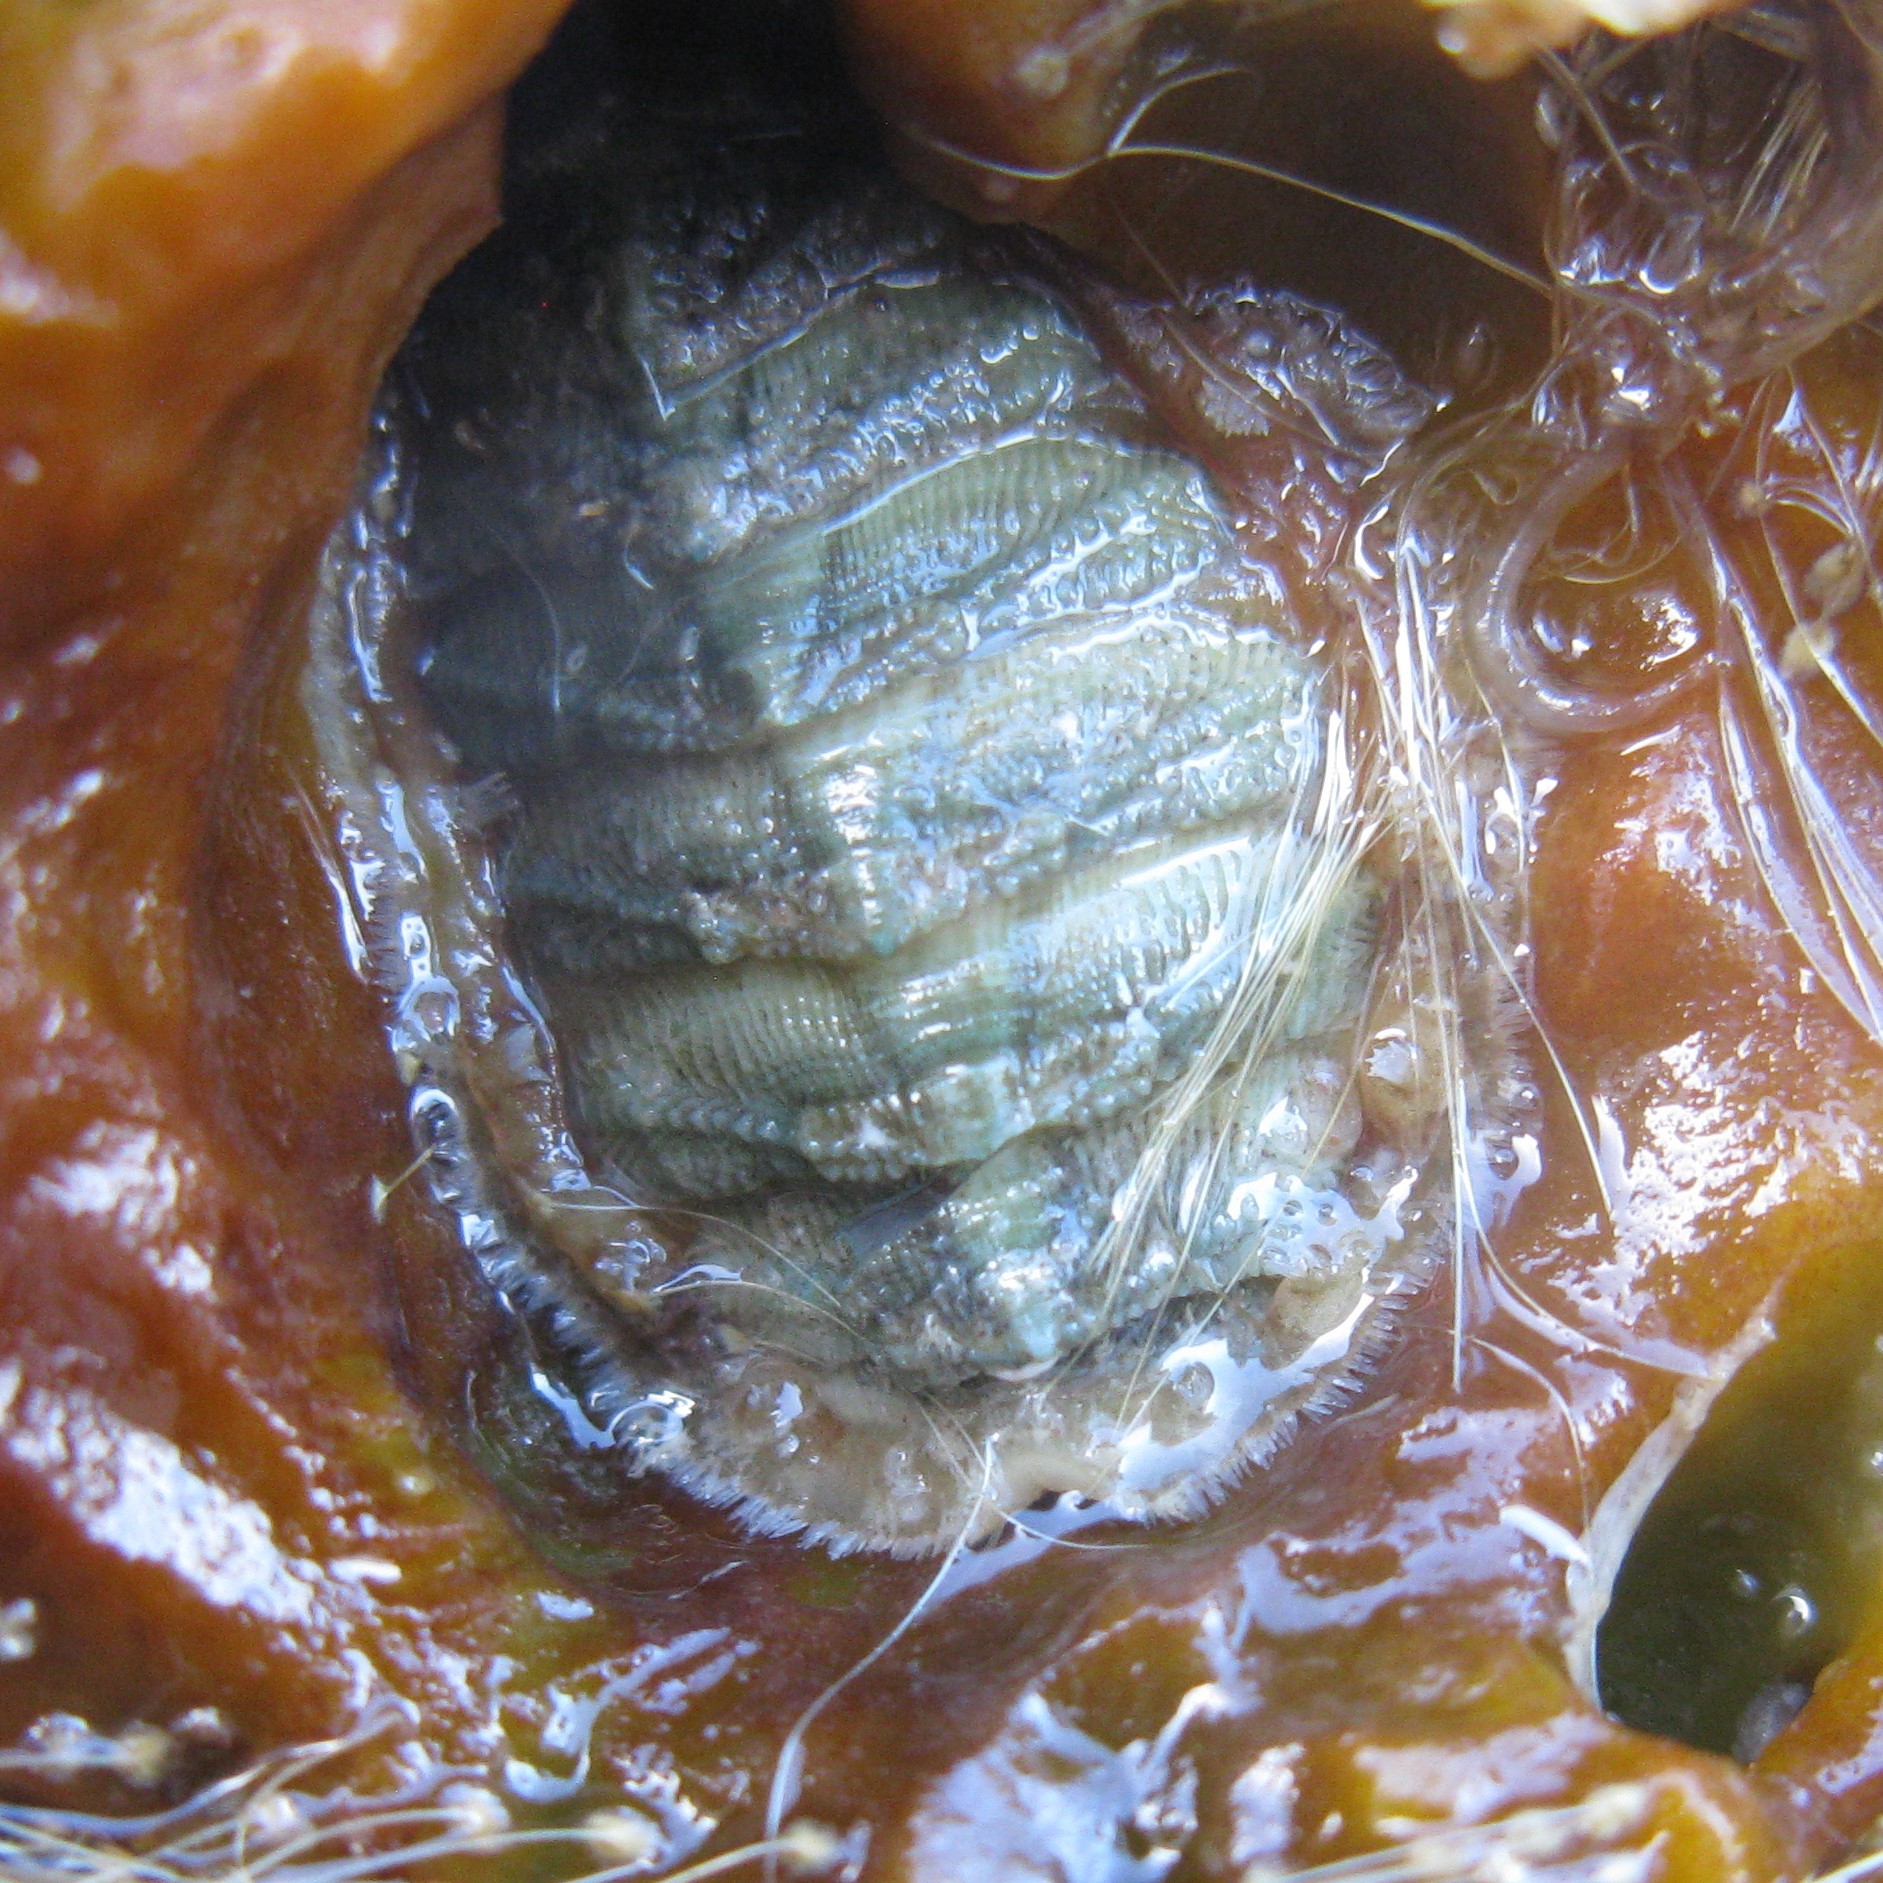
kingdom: Animalia
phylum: Mollusca
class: Polyplacophora
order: Chitonida
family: Mopaliidae
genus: Plaxiphora
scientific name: Plaxiphora egregia
